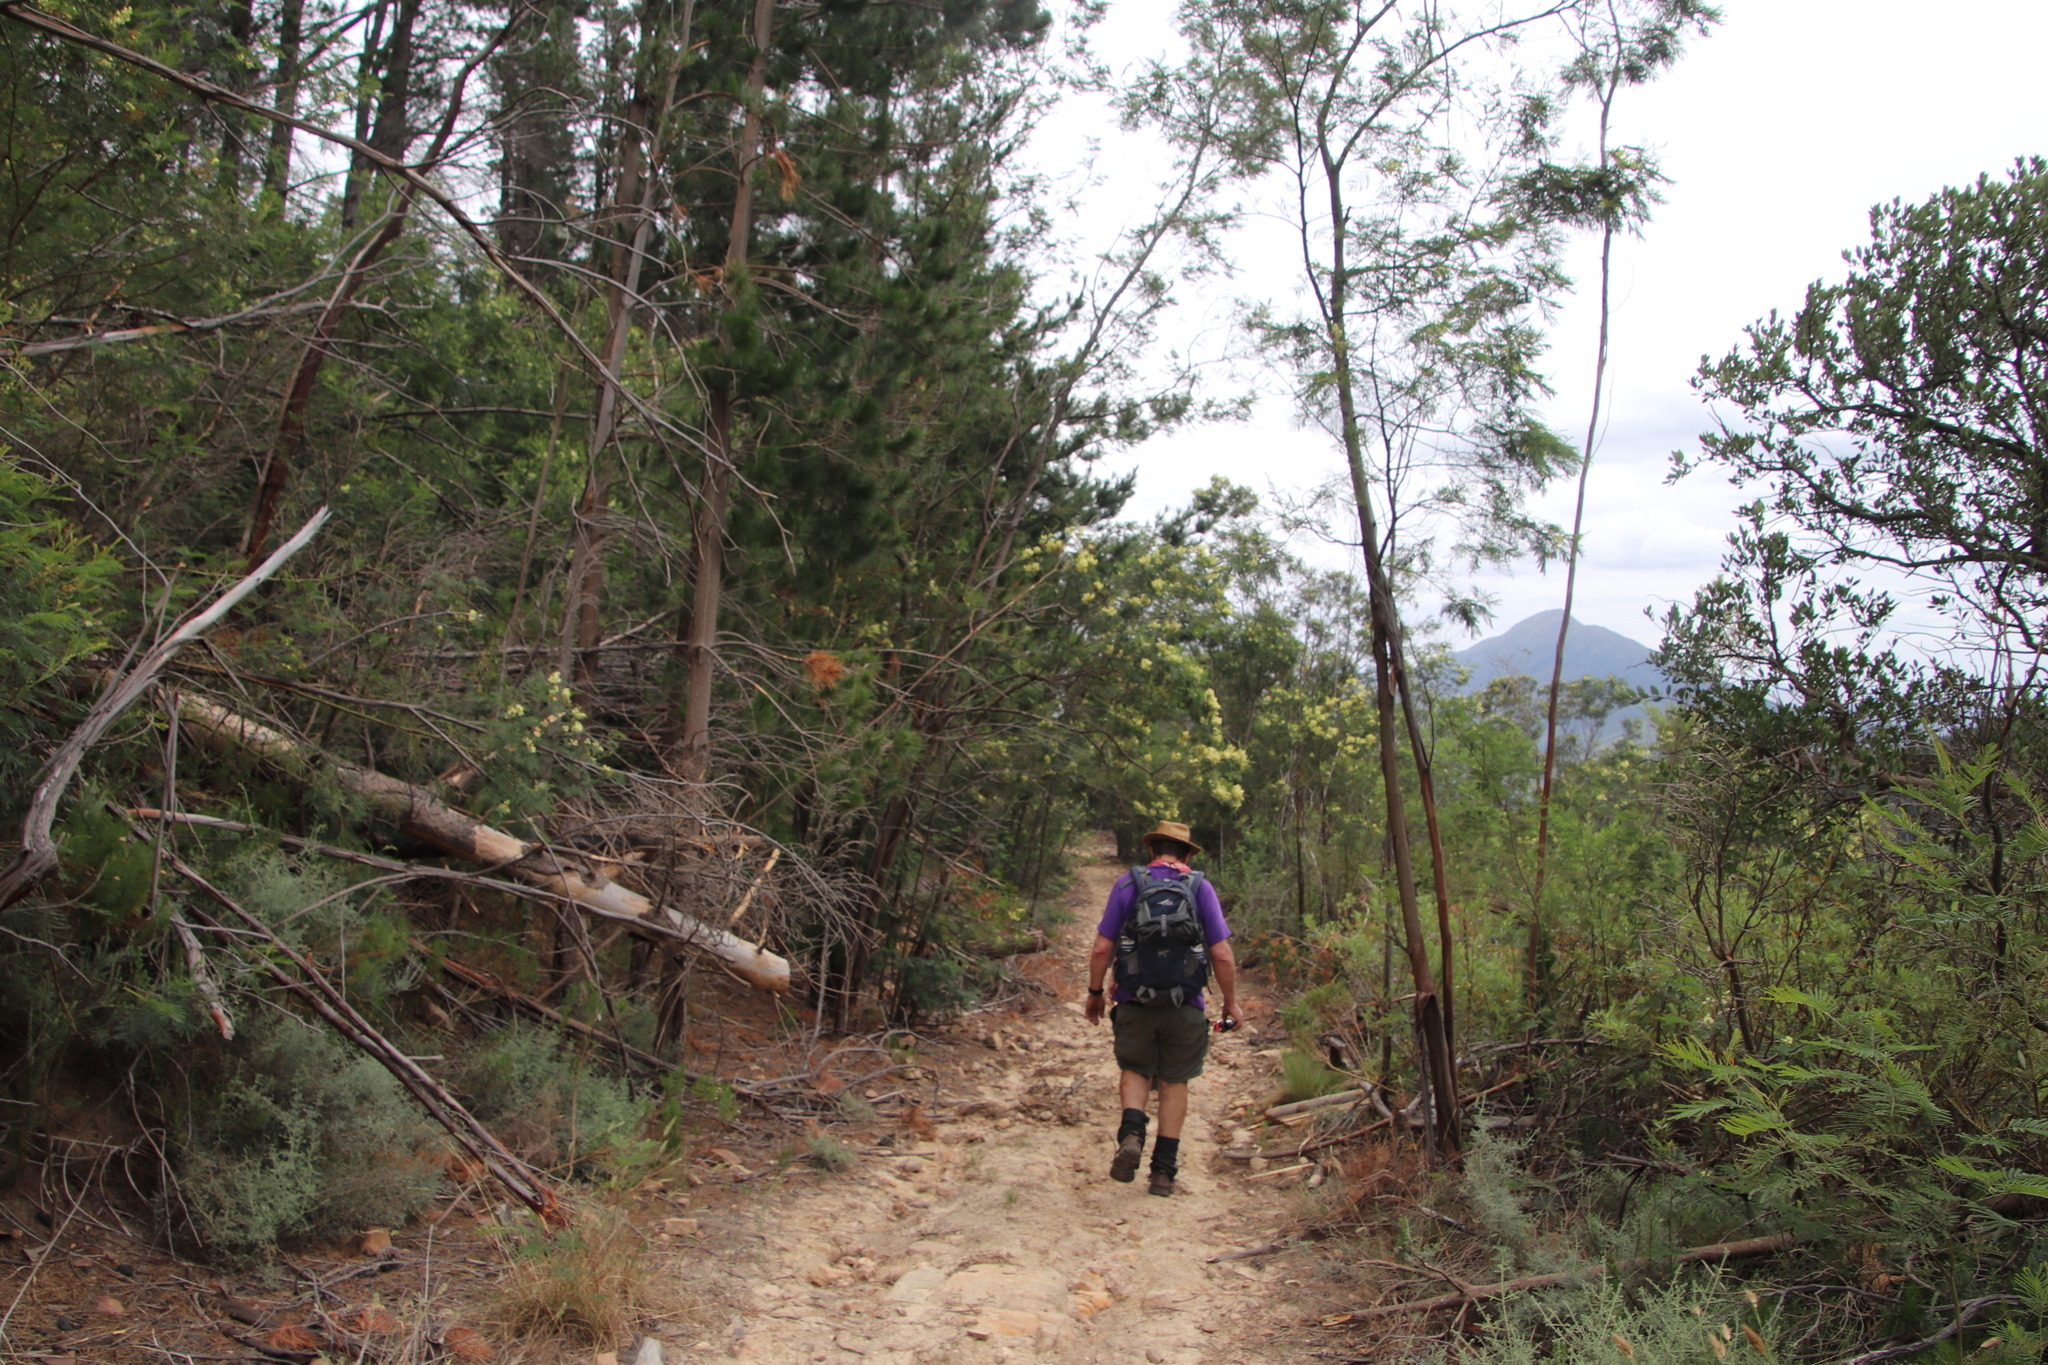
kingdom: Plantae
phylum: Tracheophyta
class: Magnoliopsida
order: Fabales
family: Fabaceae
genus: Acacia
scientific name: Acacia mearnsii
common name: Black wattle
